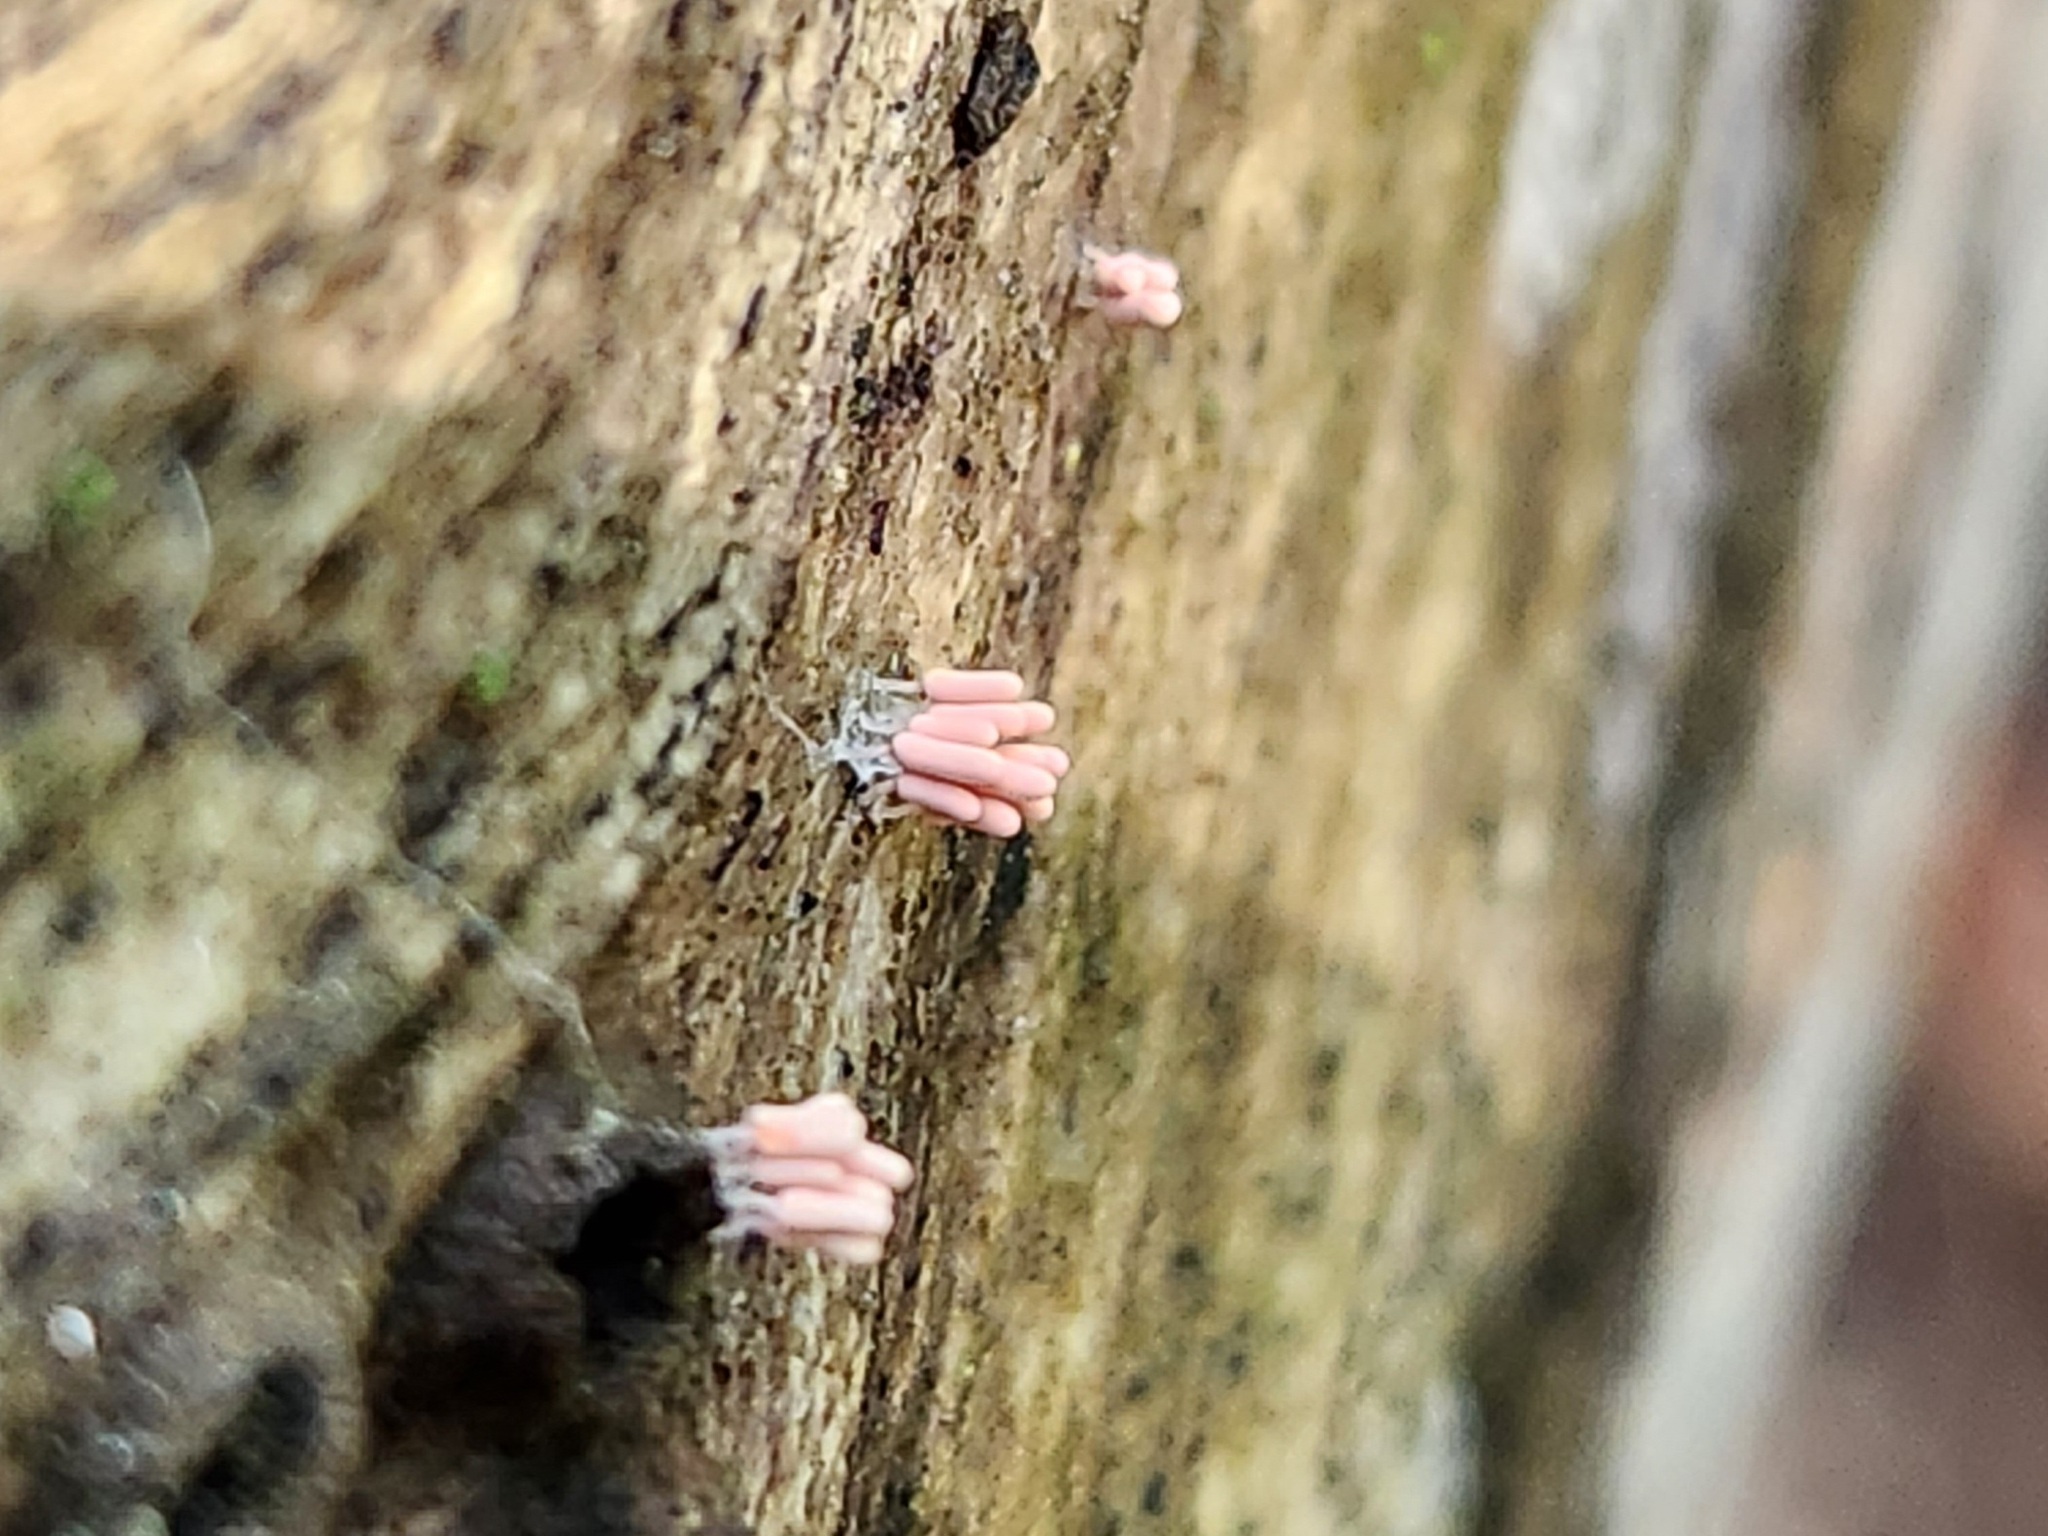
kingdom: Protozoa
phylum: Mycetozoa
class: Myxomycetes
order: Trichiales
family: Arcyriaceae
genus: Arcyria
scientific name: Arcyria denudata
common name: Carnival candy slime mold
